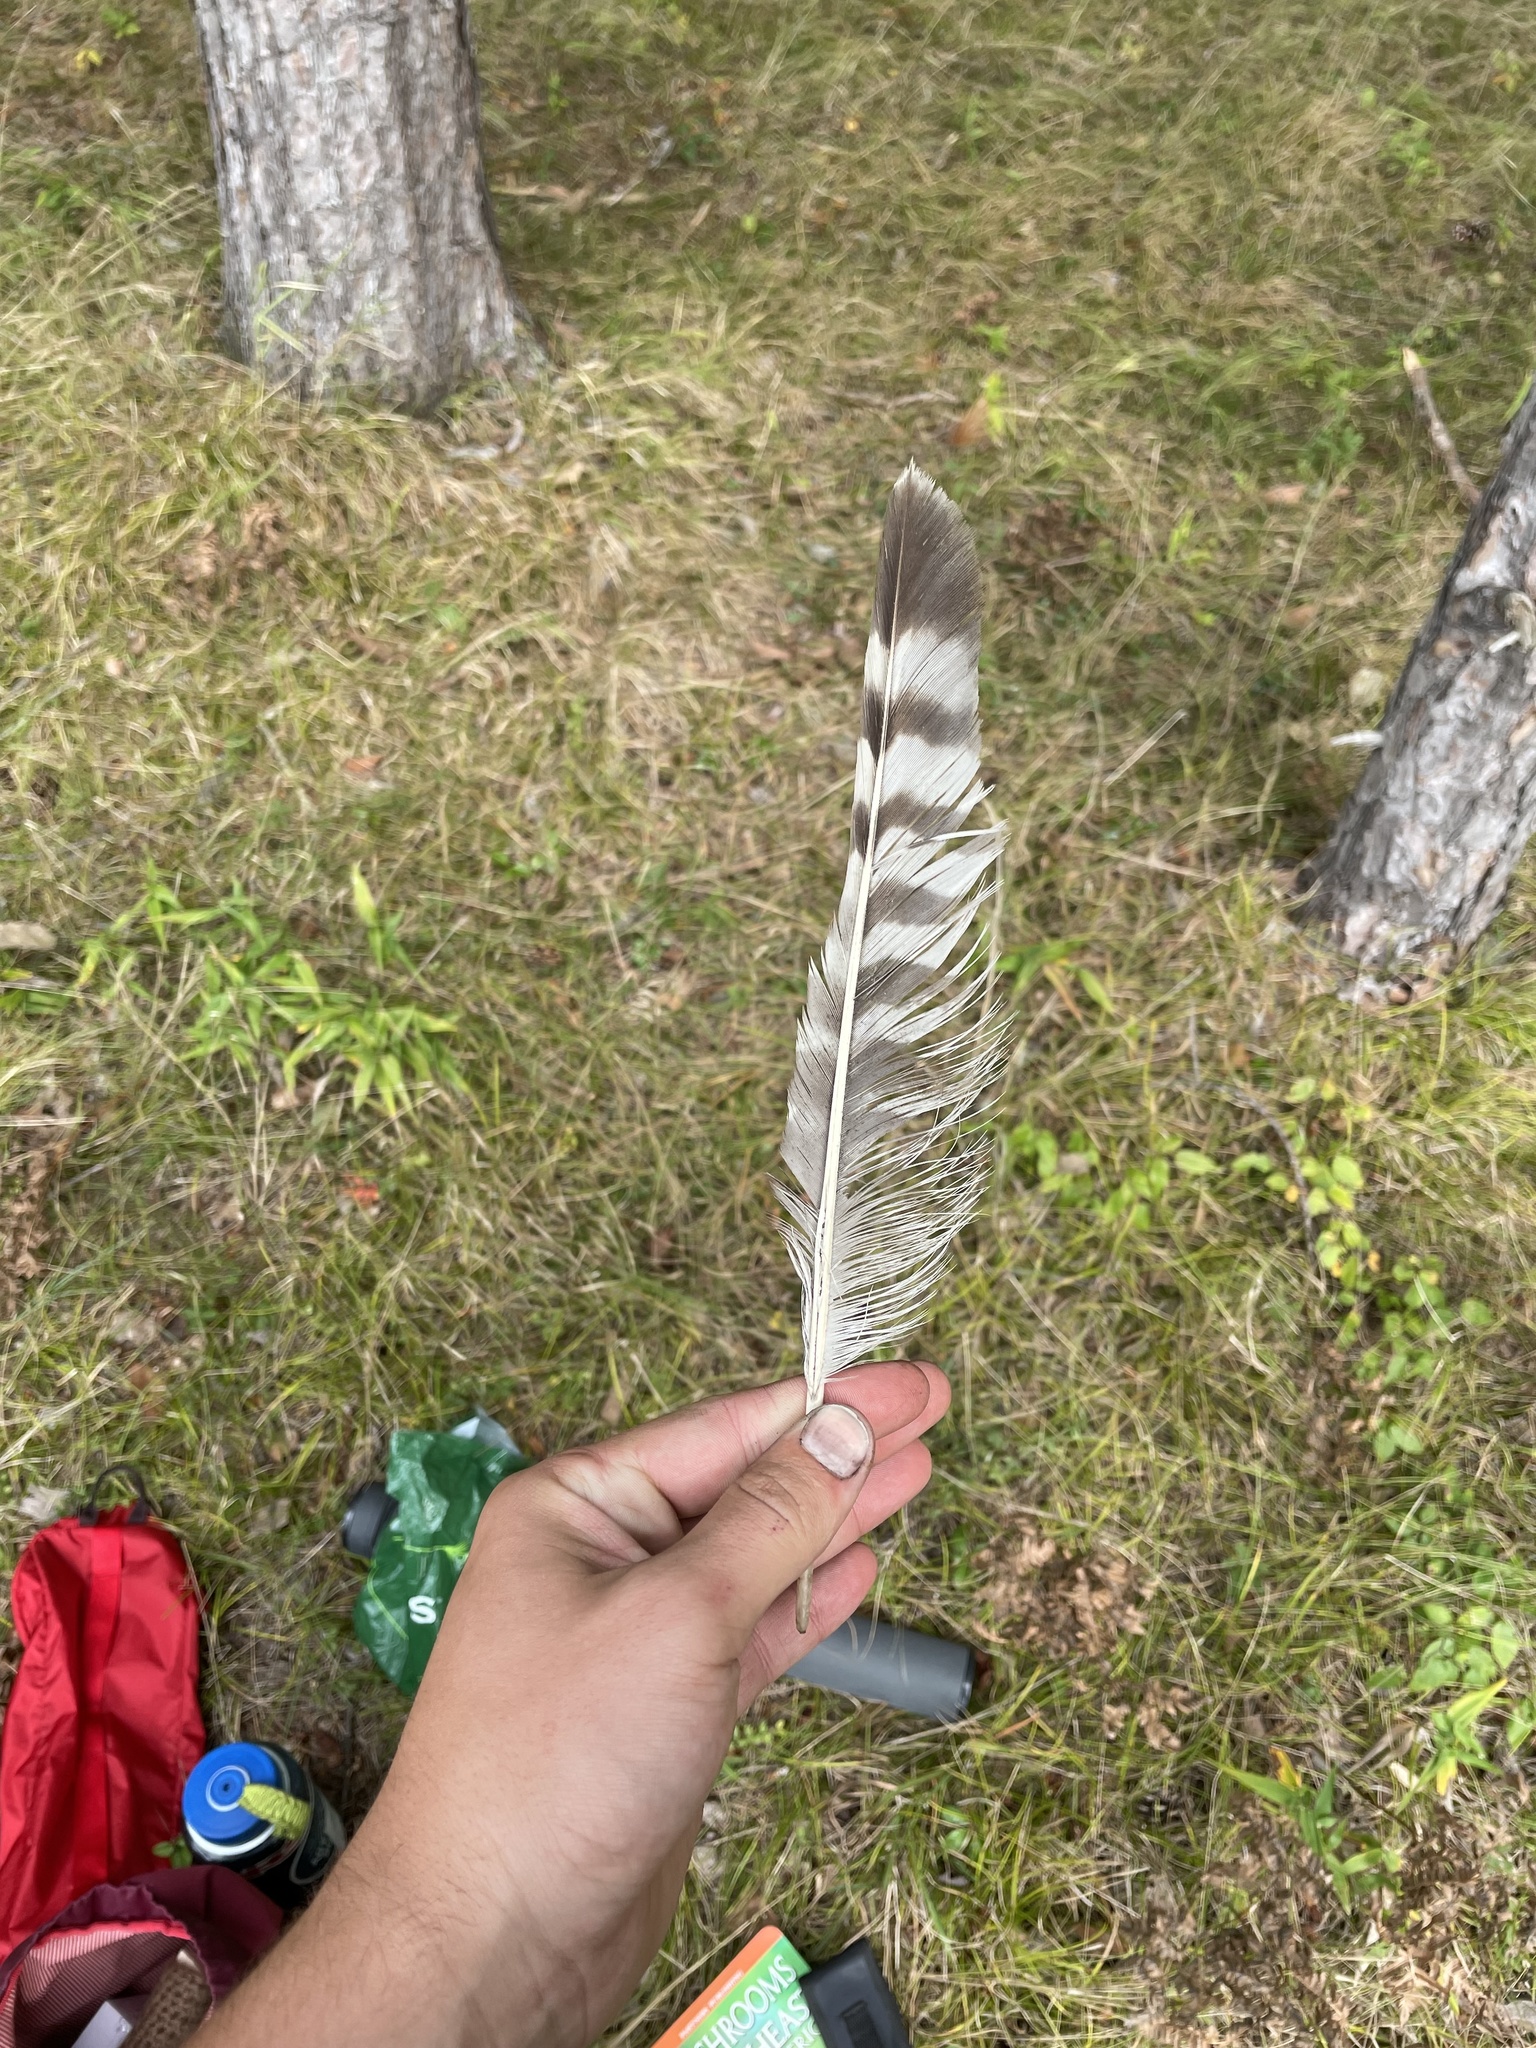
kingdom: Animalia
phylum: Chordata
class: Aves
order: Accipitriformes
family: Accipitridae
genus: Buteo
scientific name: Buteo lineatus
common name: Red-shouldered hawk
